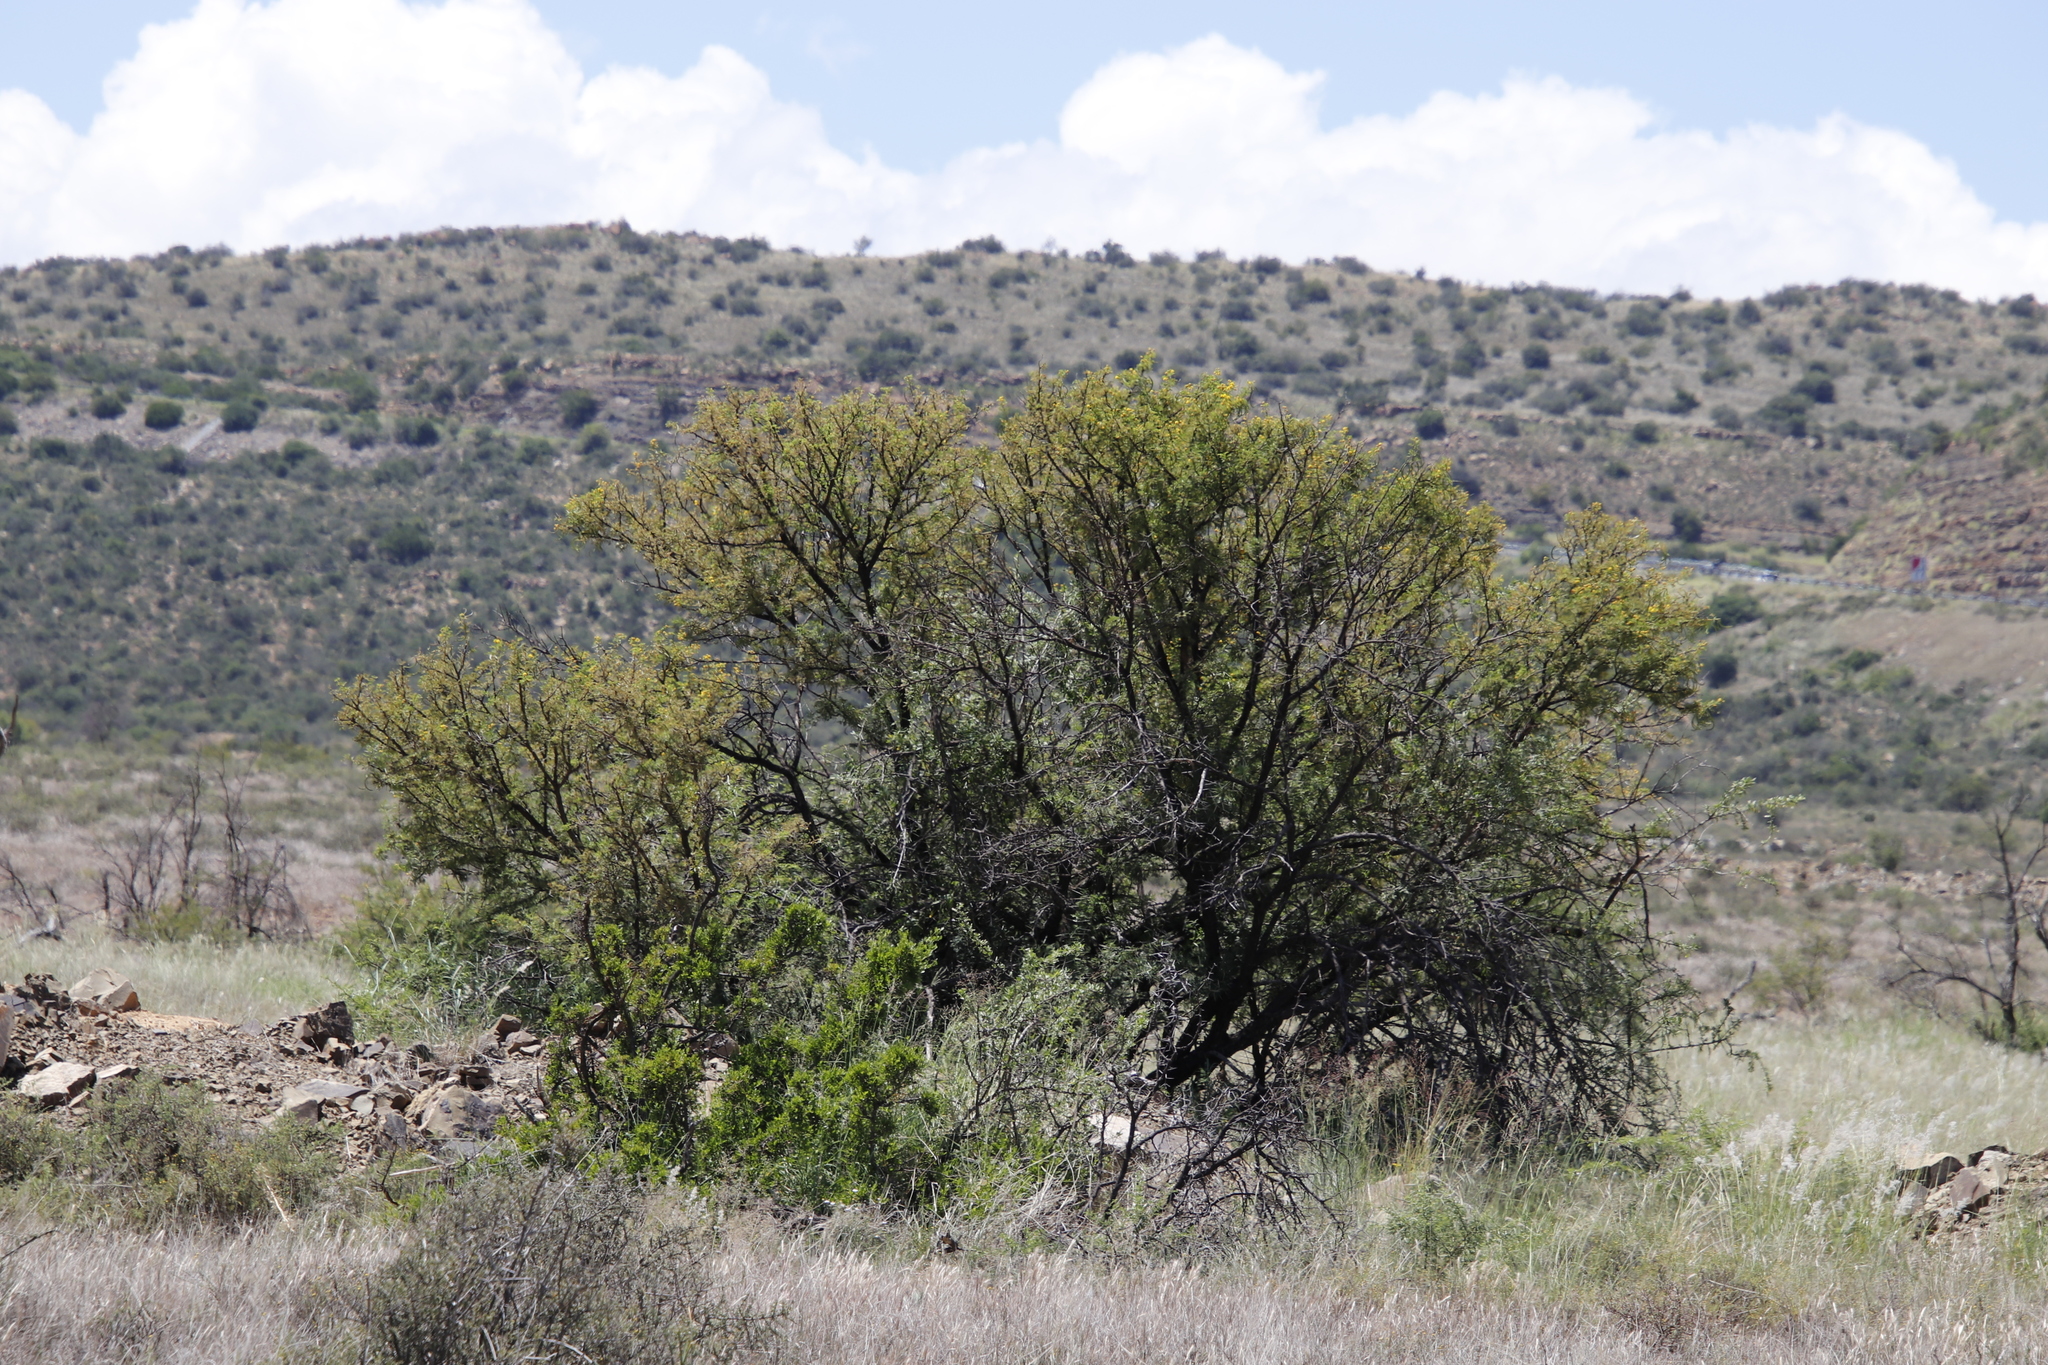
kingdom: Plantae
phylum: Tracheophyta
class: Magnoliopsida
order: Fabales
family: Fabaceae
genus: Vachellia
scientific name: Vachellia karroo
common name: Sweet thorn
